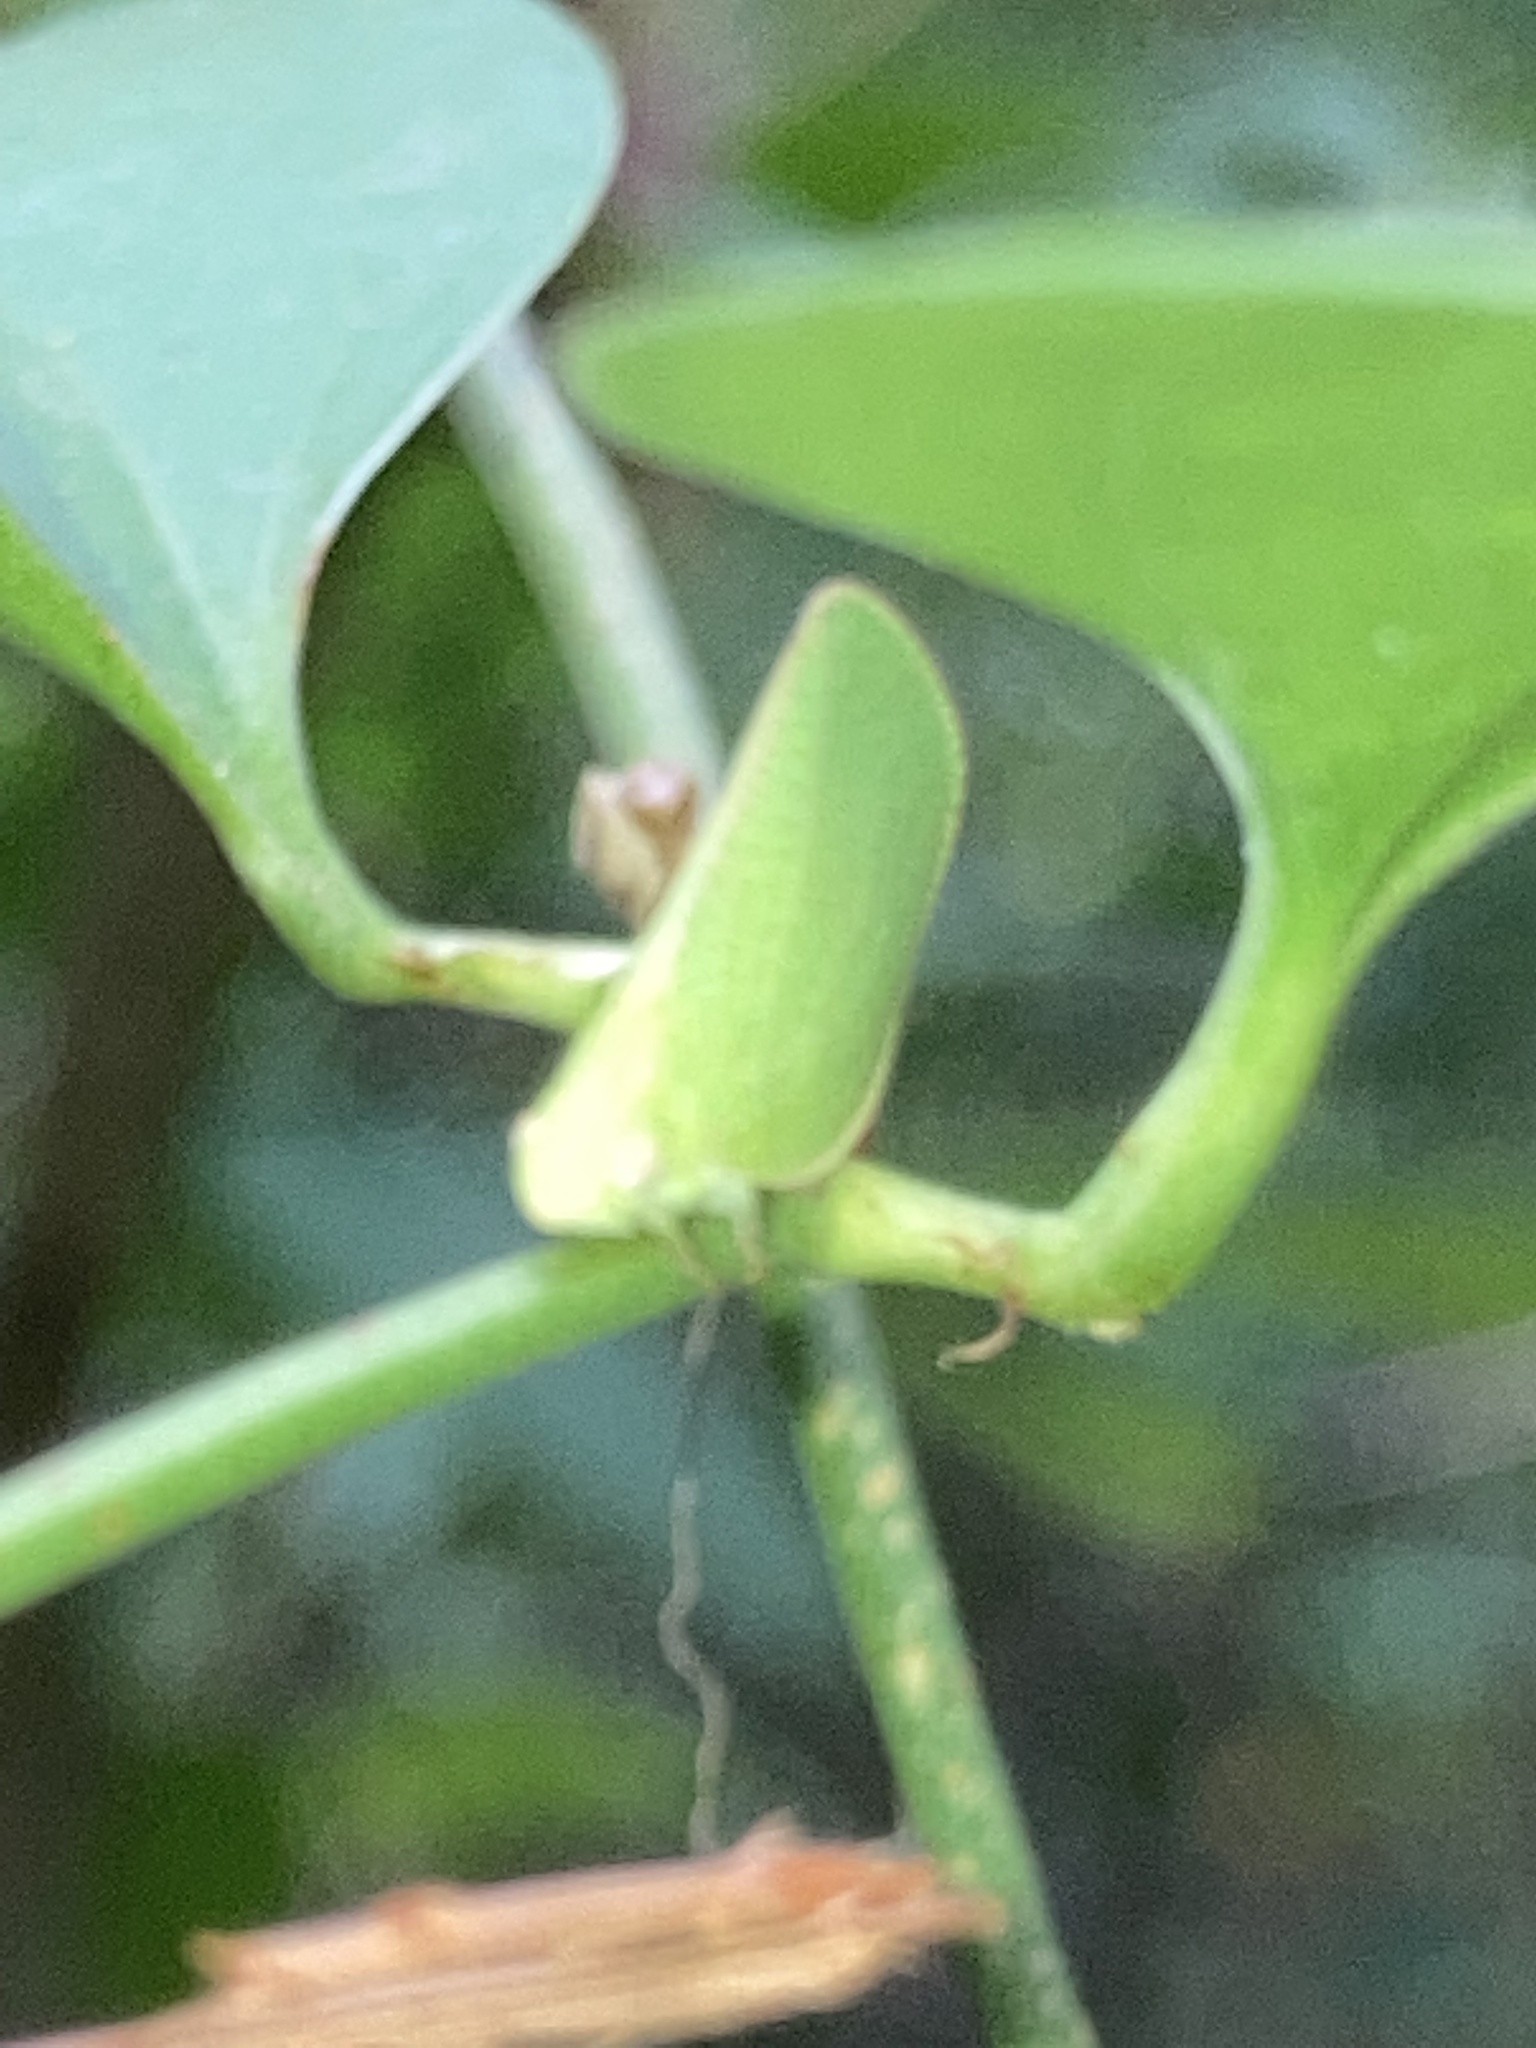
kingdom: Animalia
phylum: Arthropoda
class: Insecta
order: Hemiptera
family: Acanaloniidae
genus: Acanalonia
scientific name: Acanalonia conica
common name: Green cone-headed planthopper
